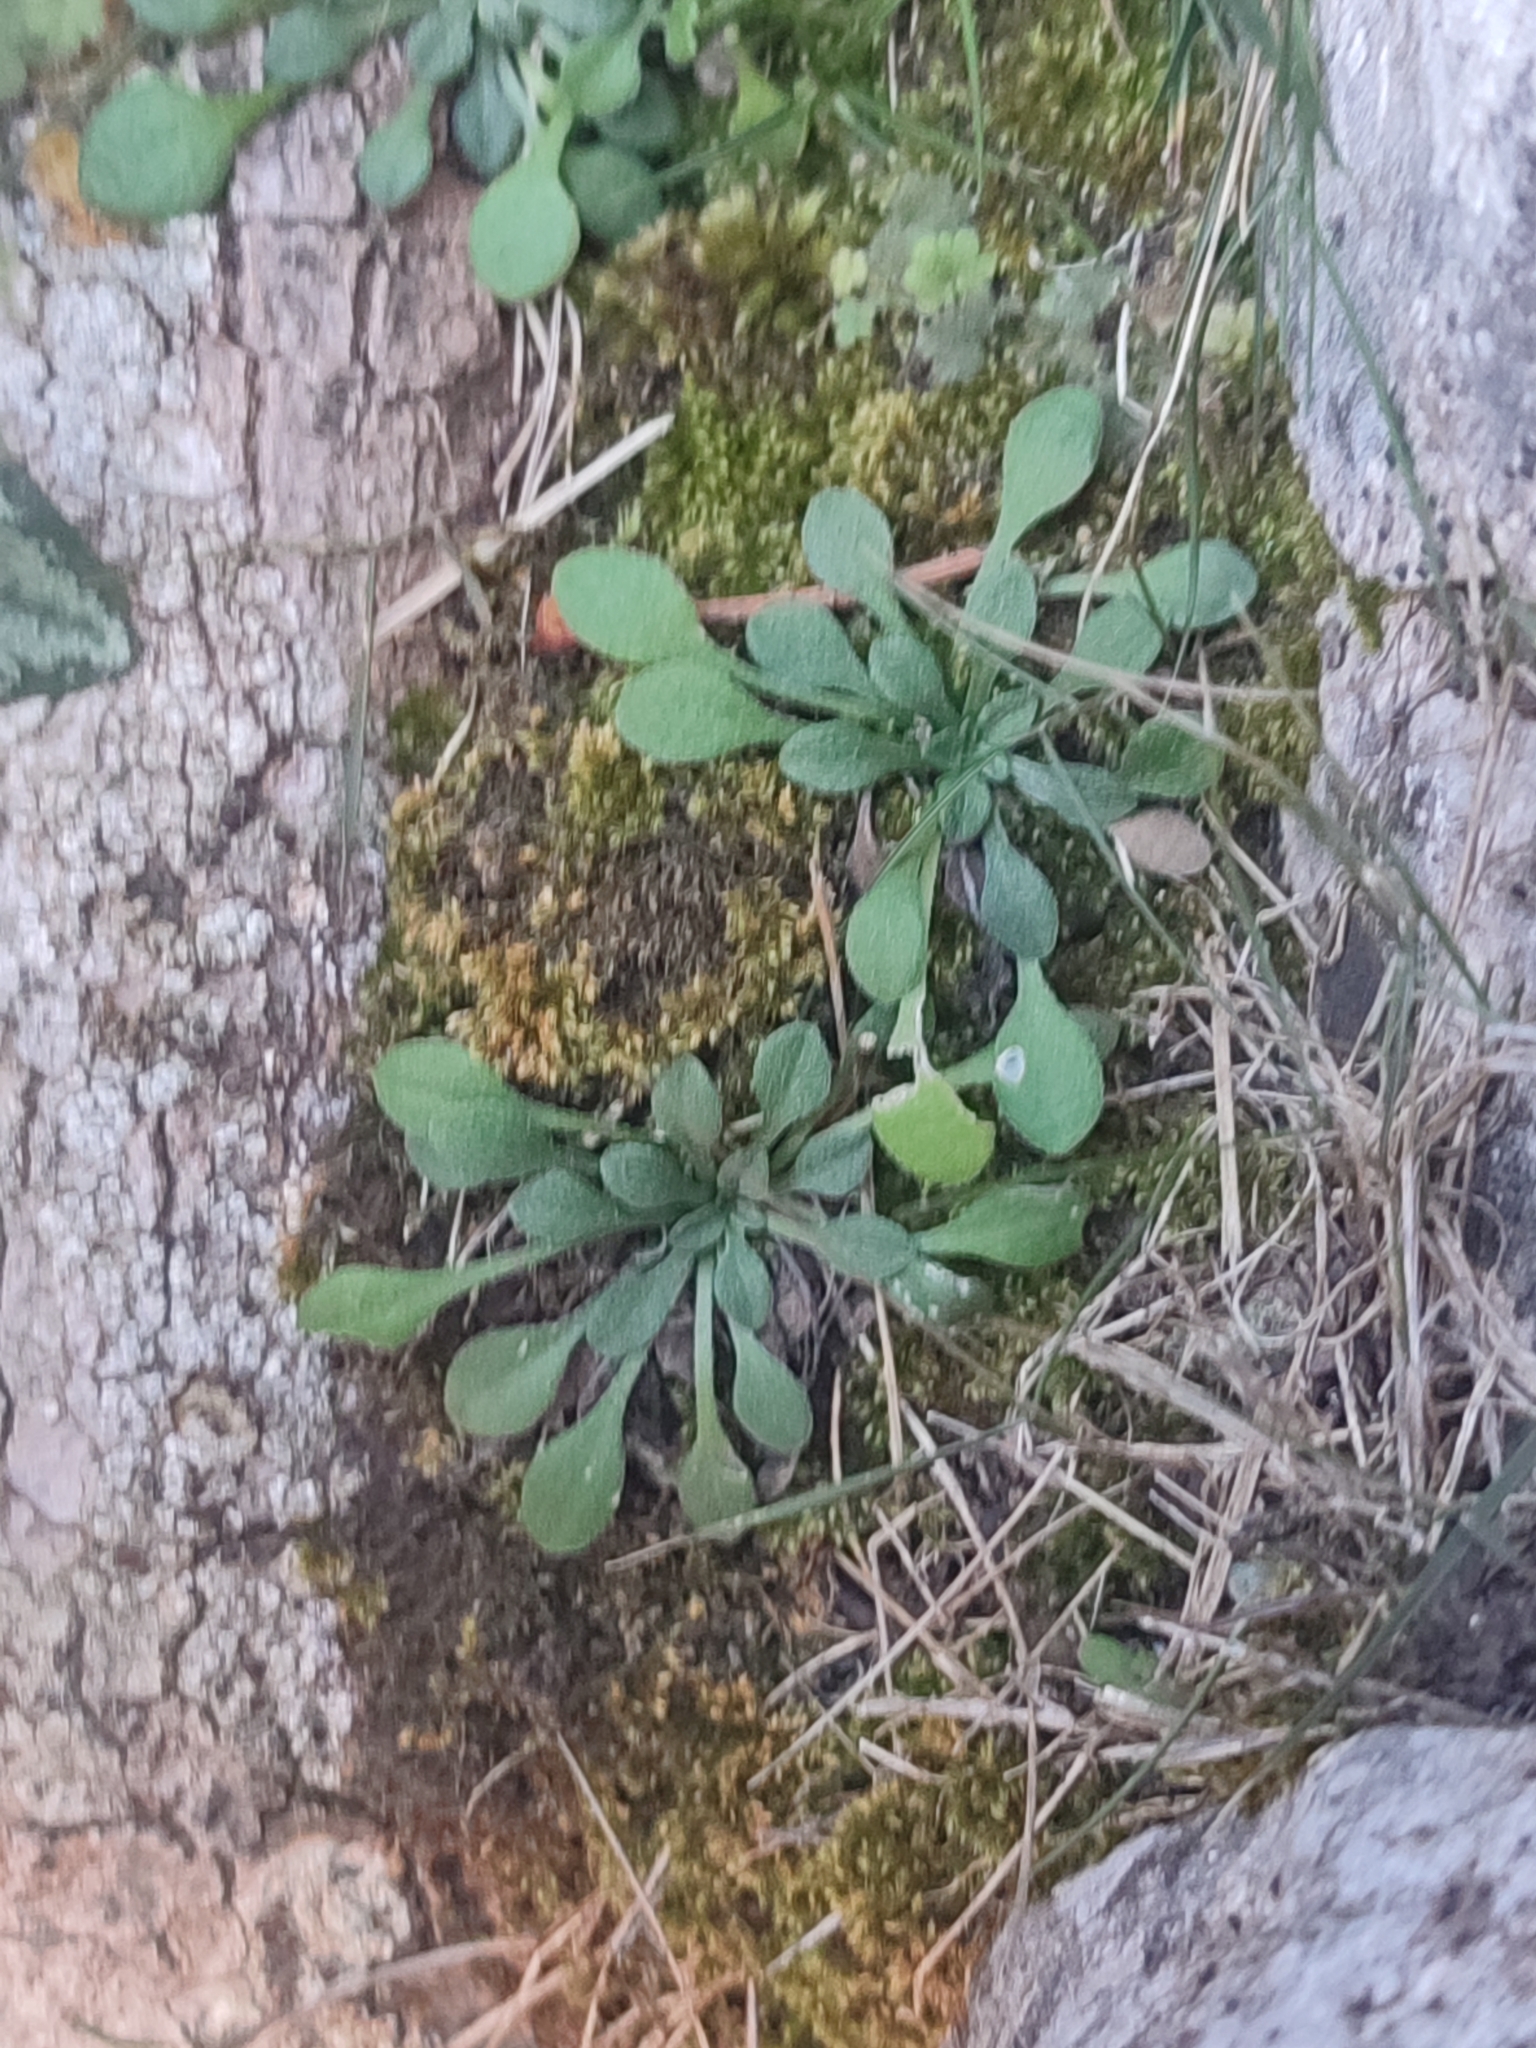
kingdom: Plantae
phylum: Tracheophyta
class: Magnoliopsida
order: Asterales
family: Asteraceae
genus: Bellium
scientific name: Bellium bellidioides
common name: False daisy
